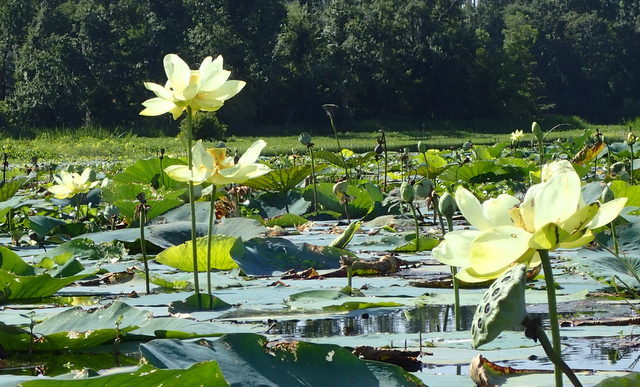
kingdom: Plantae
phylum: Tracheophyta
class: Magnoliopsida
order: Proteales
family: Nelumbonaceae
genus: Nelumbo
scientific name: Nelumbo lutea
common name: American lotus
